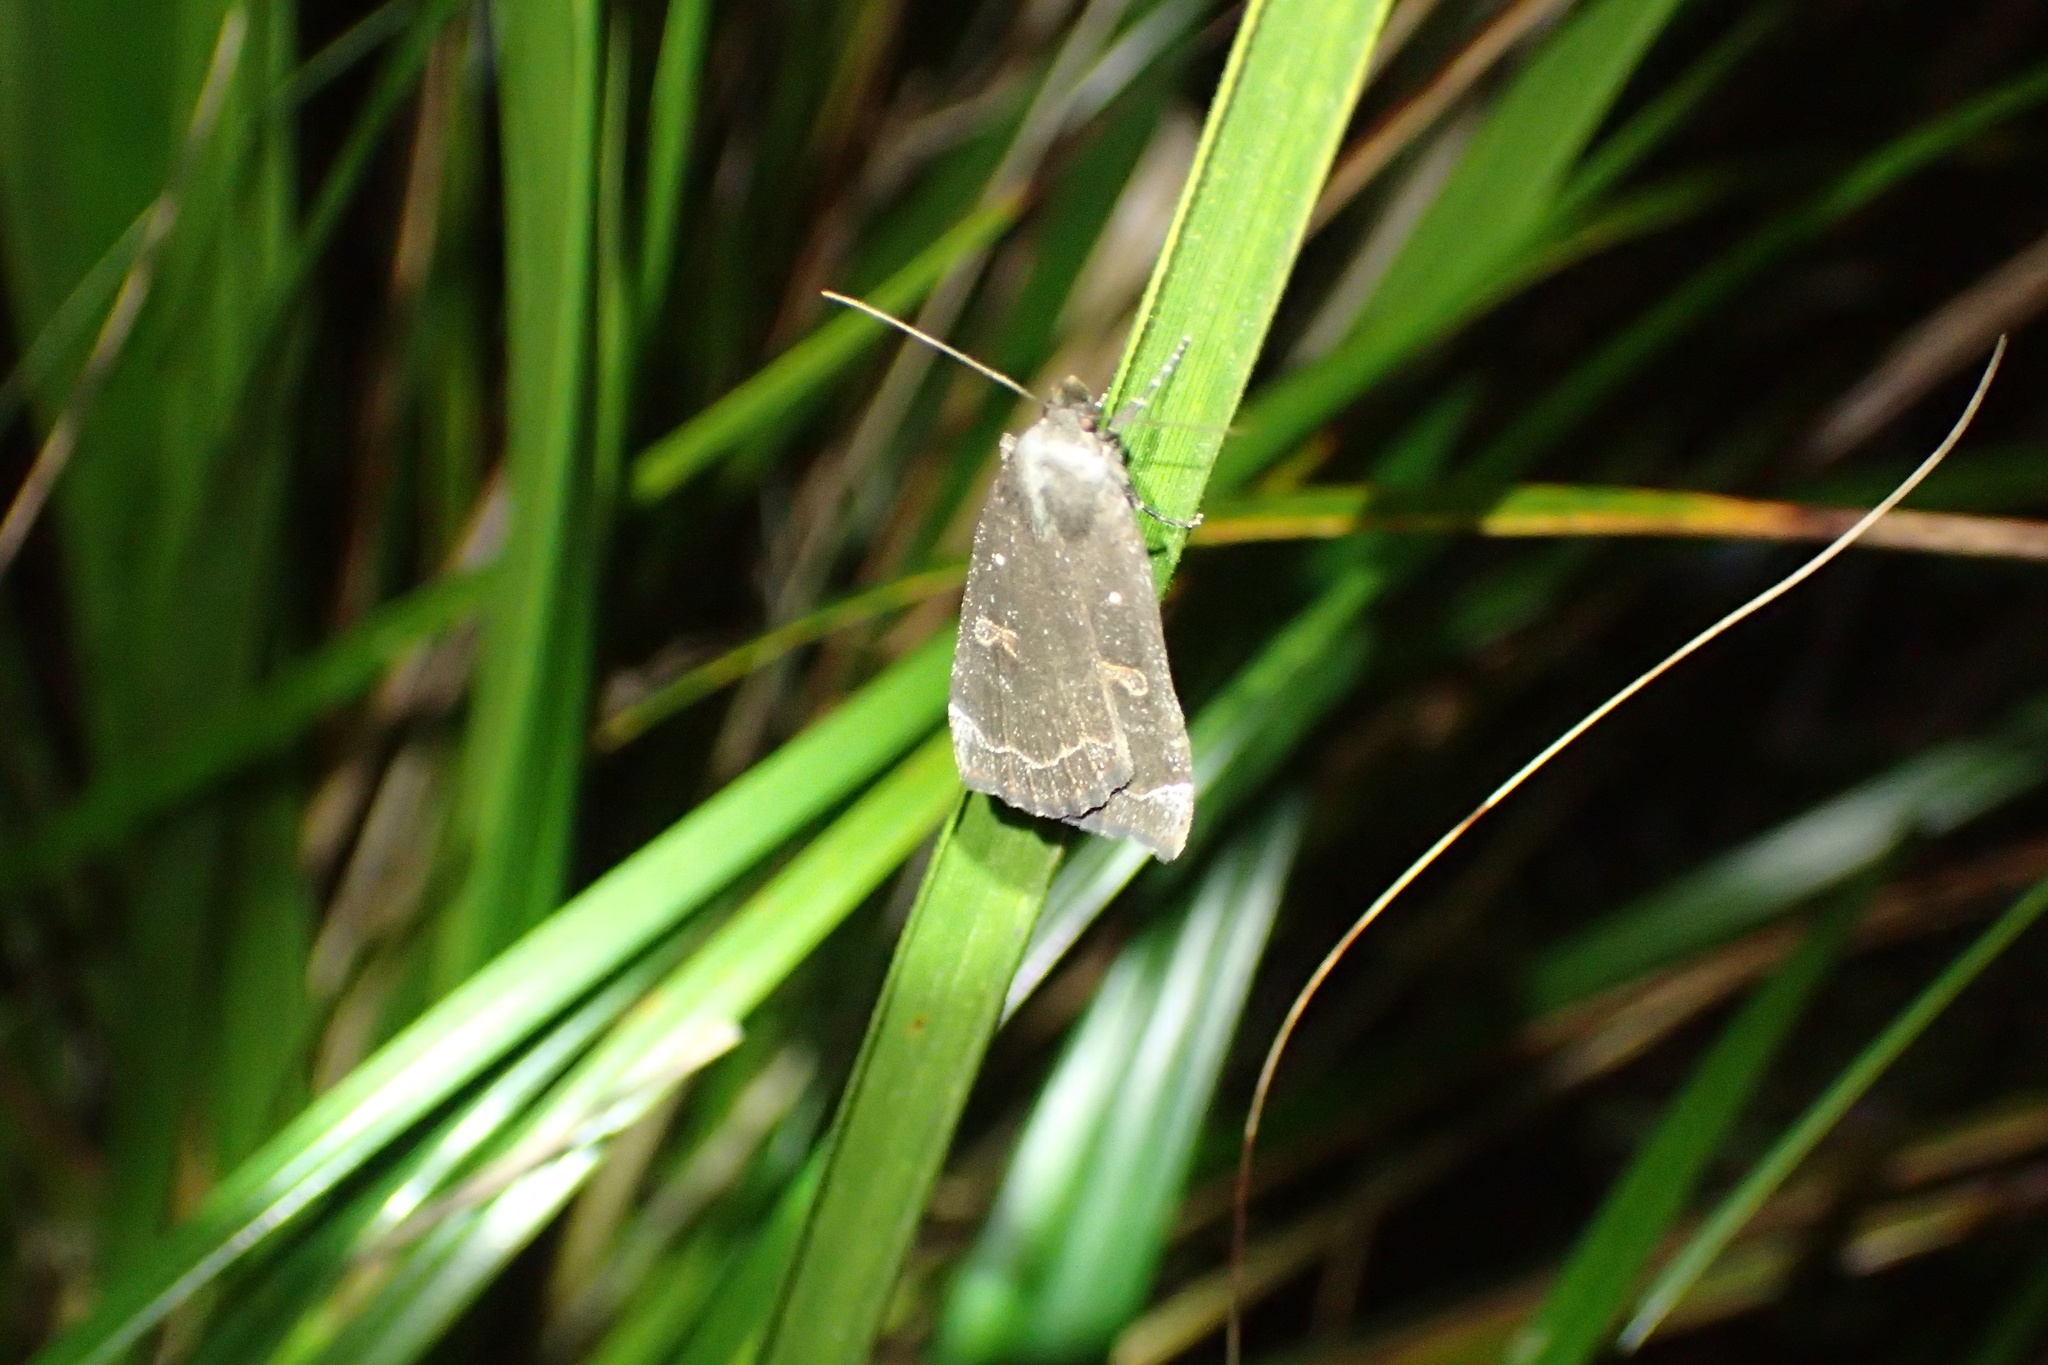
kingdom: Animalia
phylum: Arthropoda
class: Insecta
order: Lepidoptera
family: Erebidae
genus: Rhapsa
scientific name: Rhapsa scotosialis
